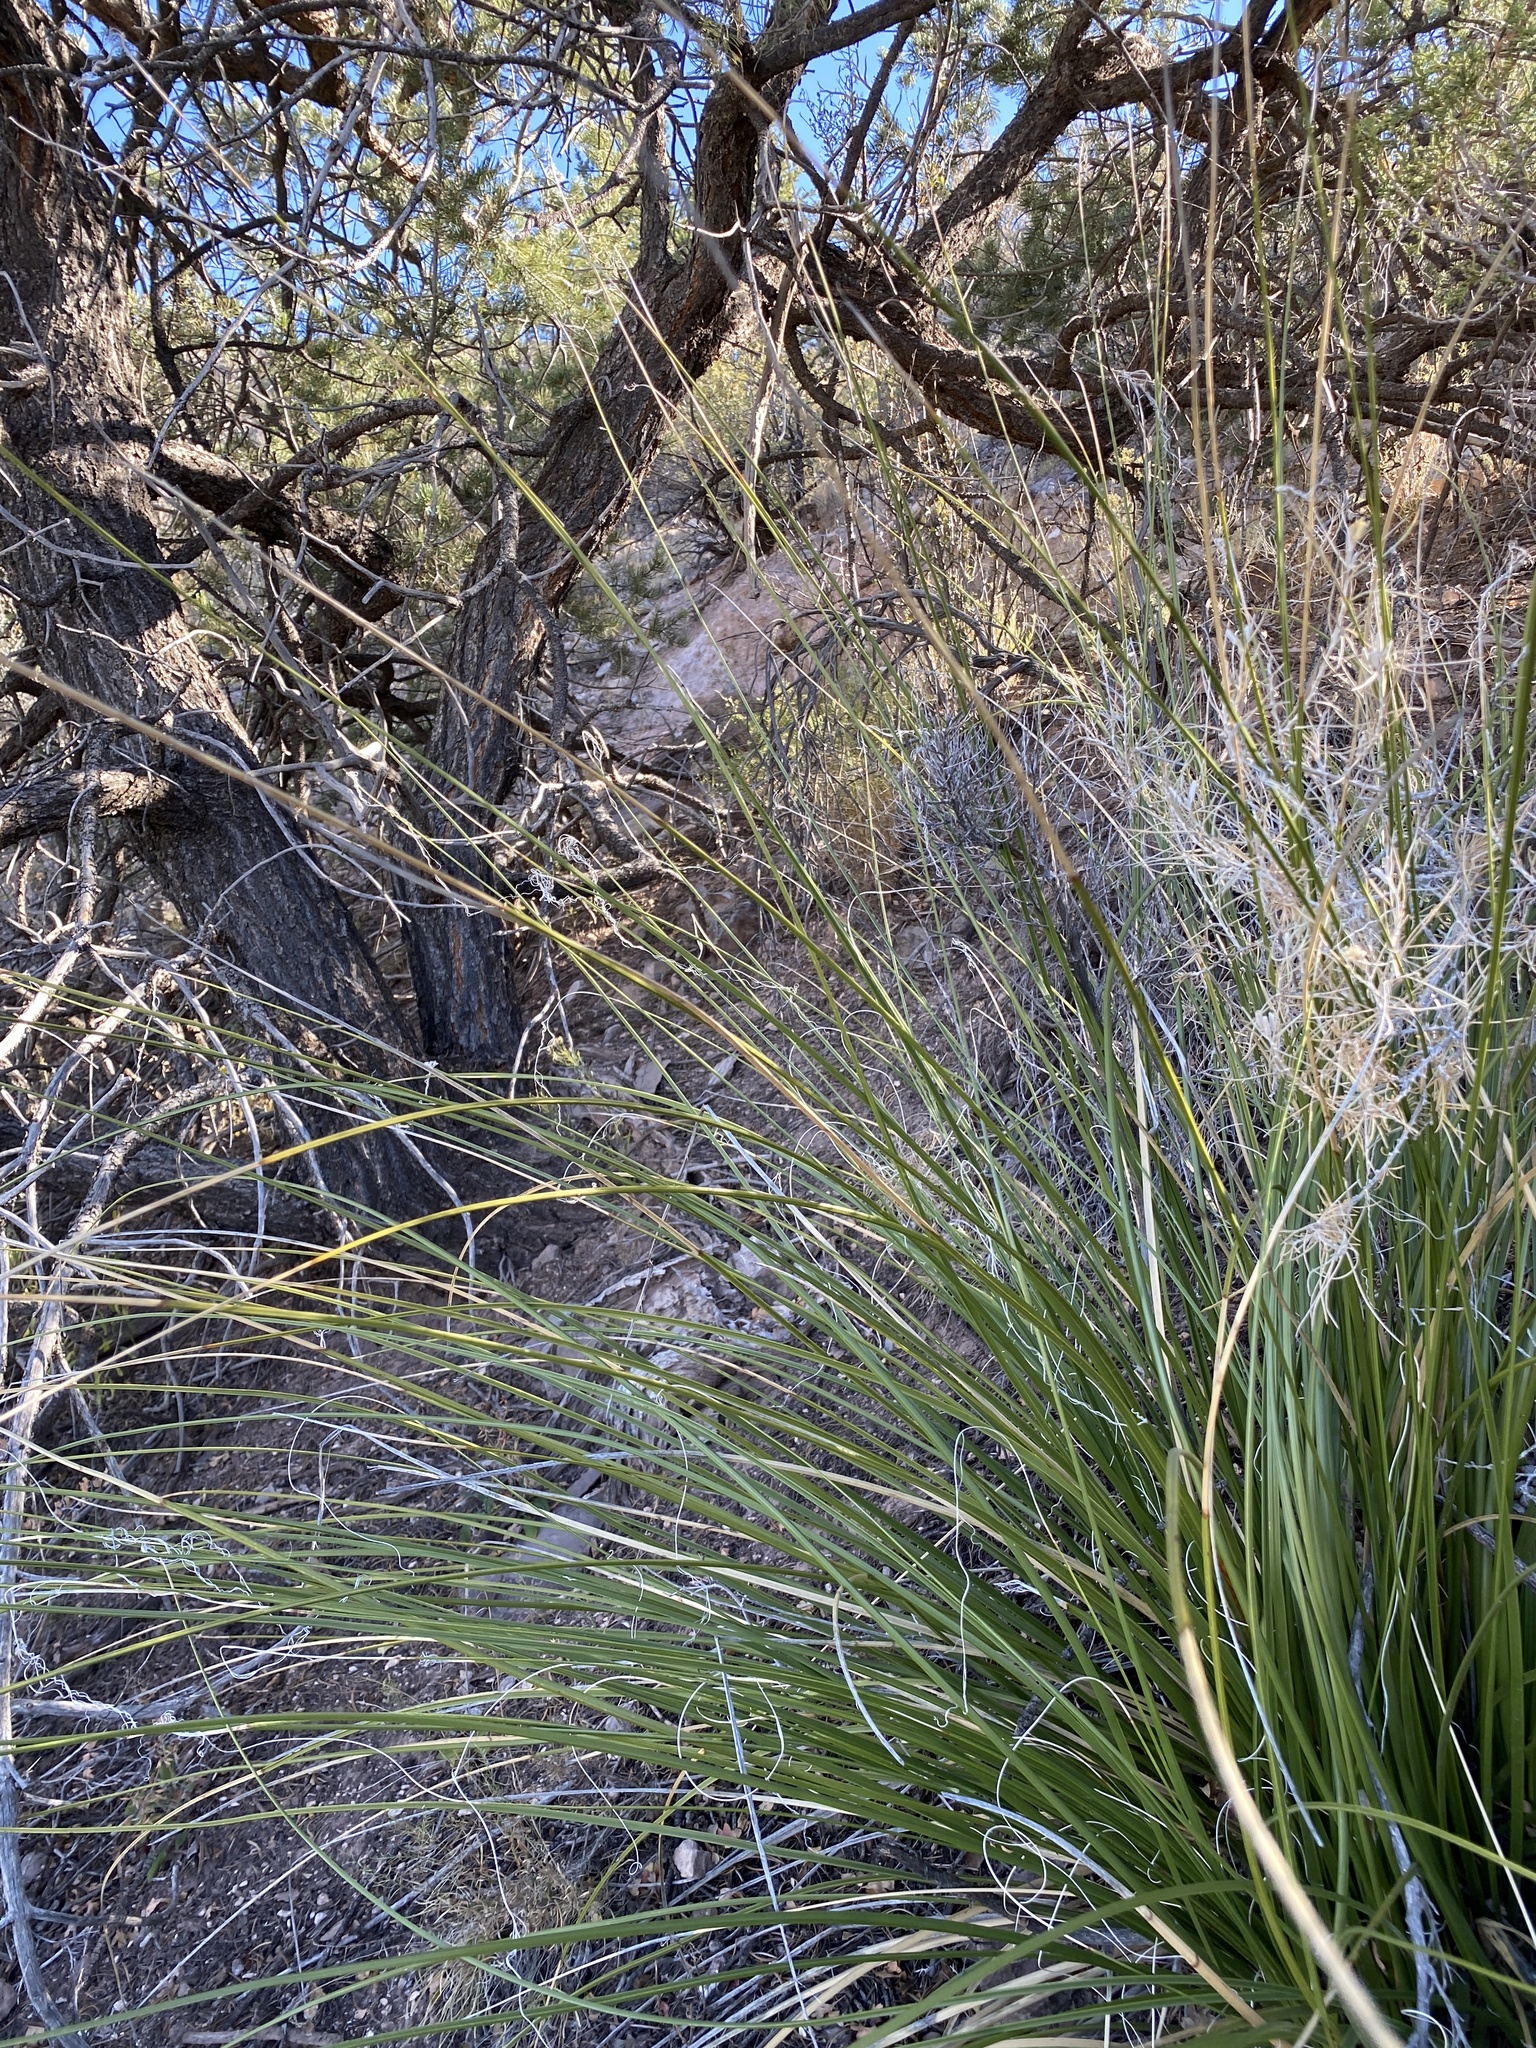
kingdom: Plantae
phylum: Tracheophyta
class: Liliopsida
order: Asparagales
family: Asparagaceae
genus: Nolina
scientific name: Nolina microcarpa
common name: Bear-grass
